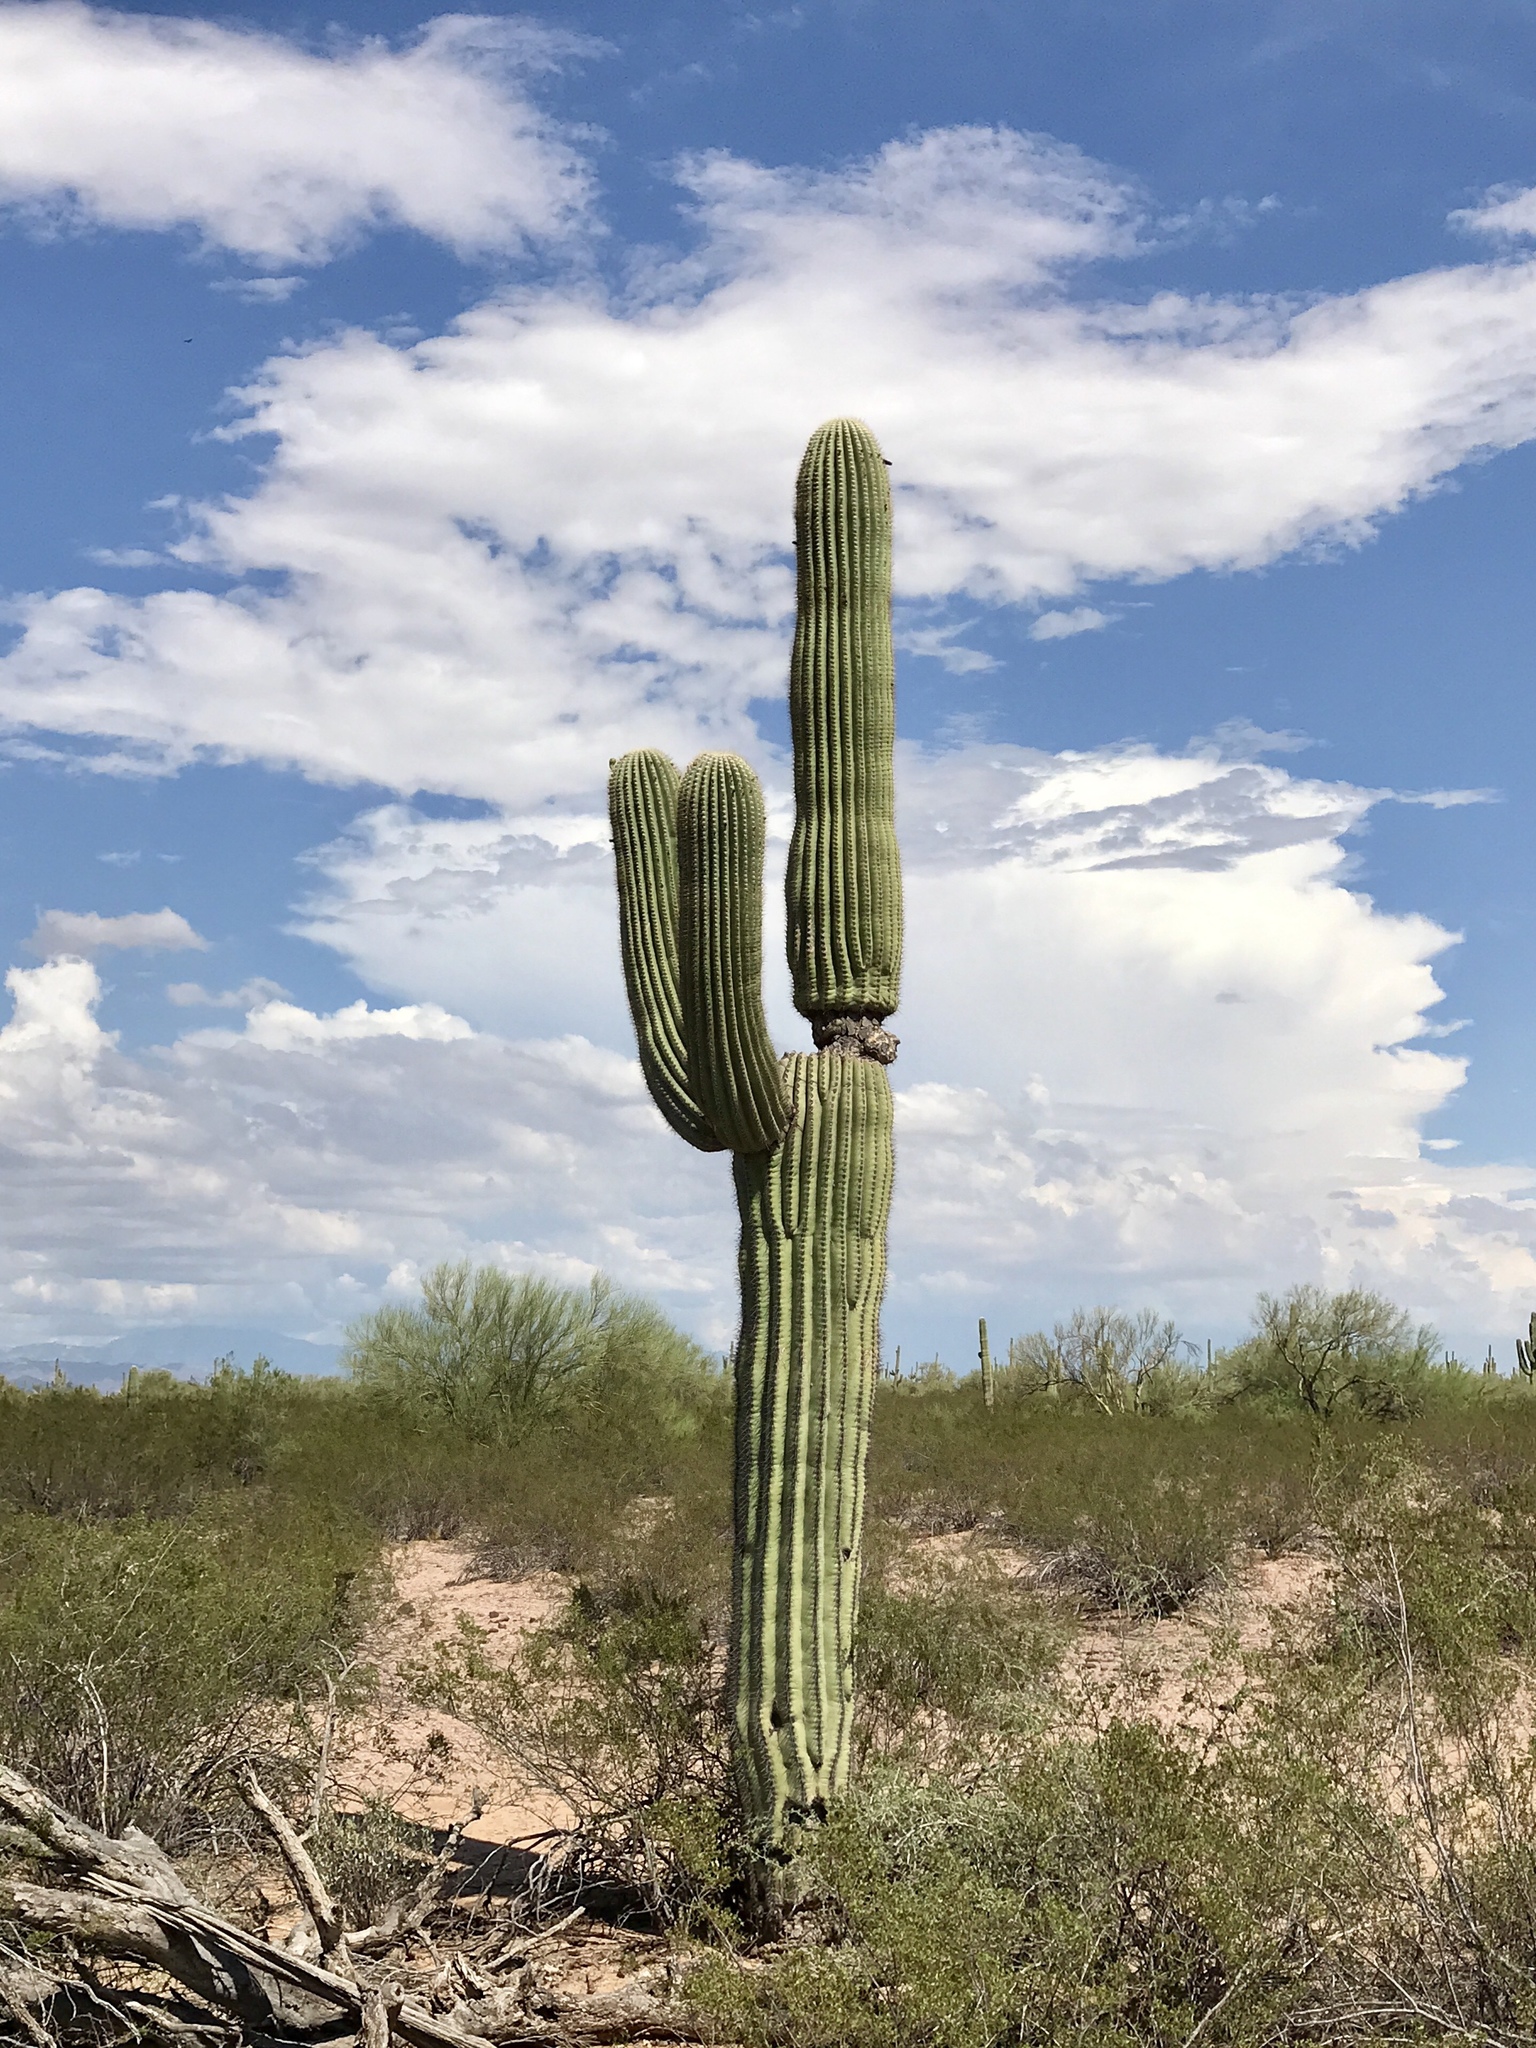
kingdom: Plantae
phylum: Tracheophyta
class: Magnoliopsida
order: Caryophyllales
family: Cactaceae
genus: Carnegiea
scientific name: Carnegiea gigantea
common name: Saguaro
